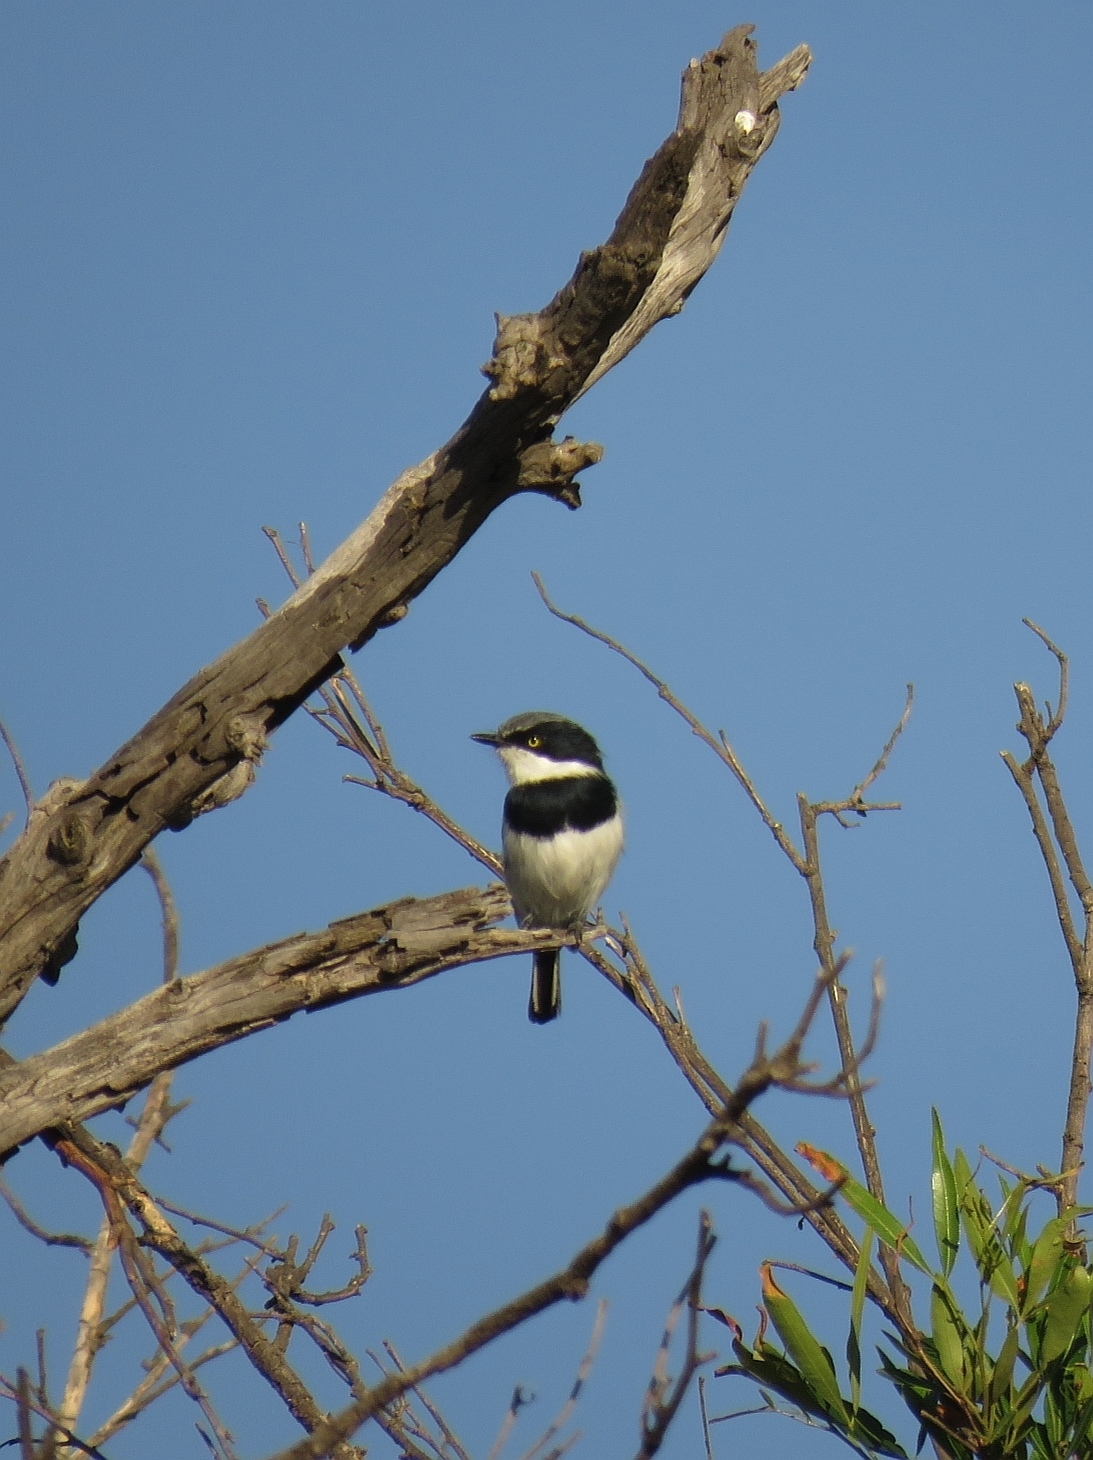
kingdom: Animalia
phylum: Chordata
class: Aves
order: Passeriformes
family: Platysteiridae
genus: Batis
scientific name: Batis pririt
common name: Pririt batis
